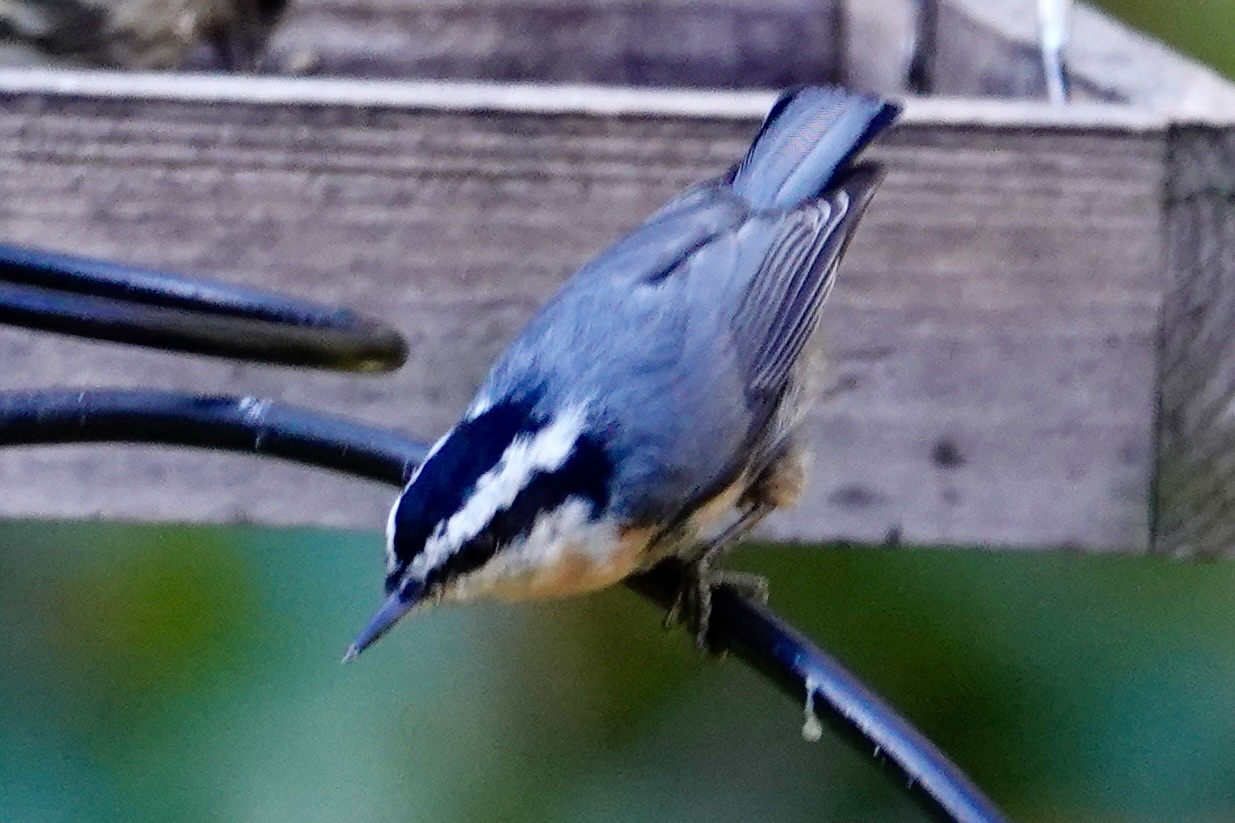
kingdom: Animalia
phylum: Chordata
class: Aves
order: Passeriformes
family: Sittidae
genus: Sitta
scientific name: Sitta canadensis
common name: Red-breasted nuthatch
